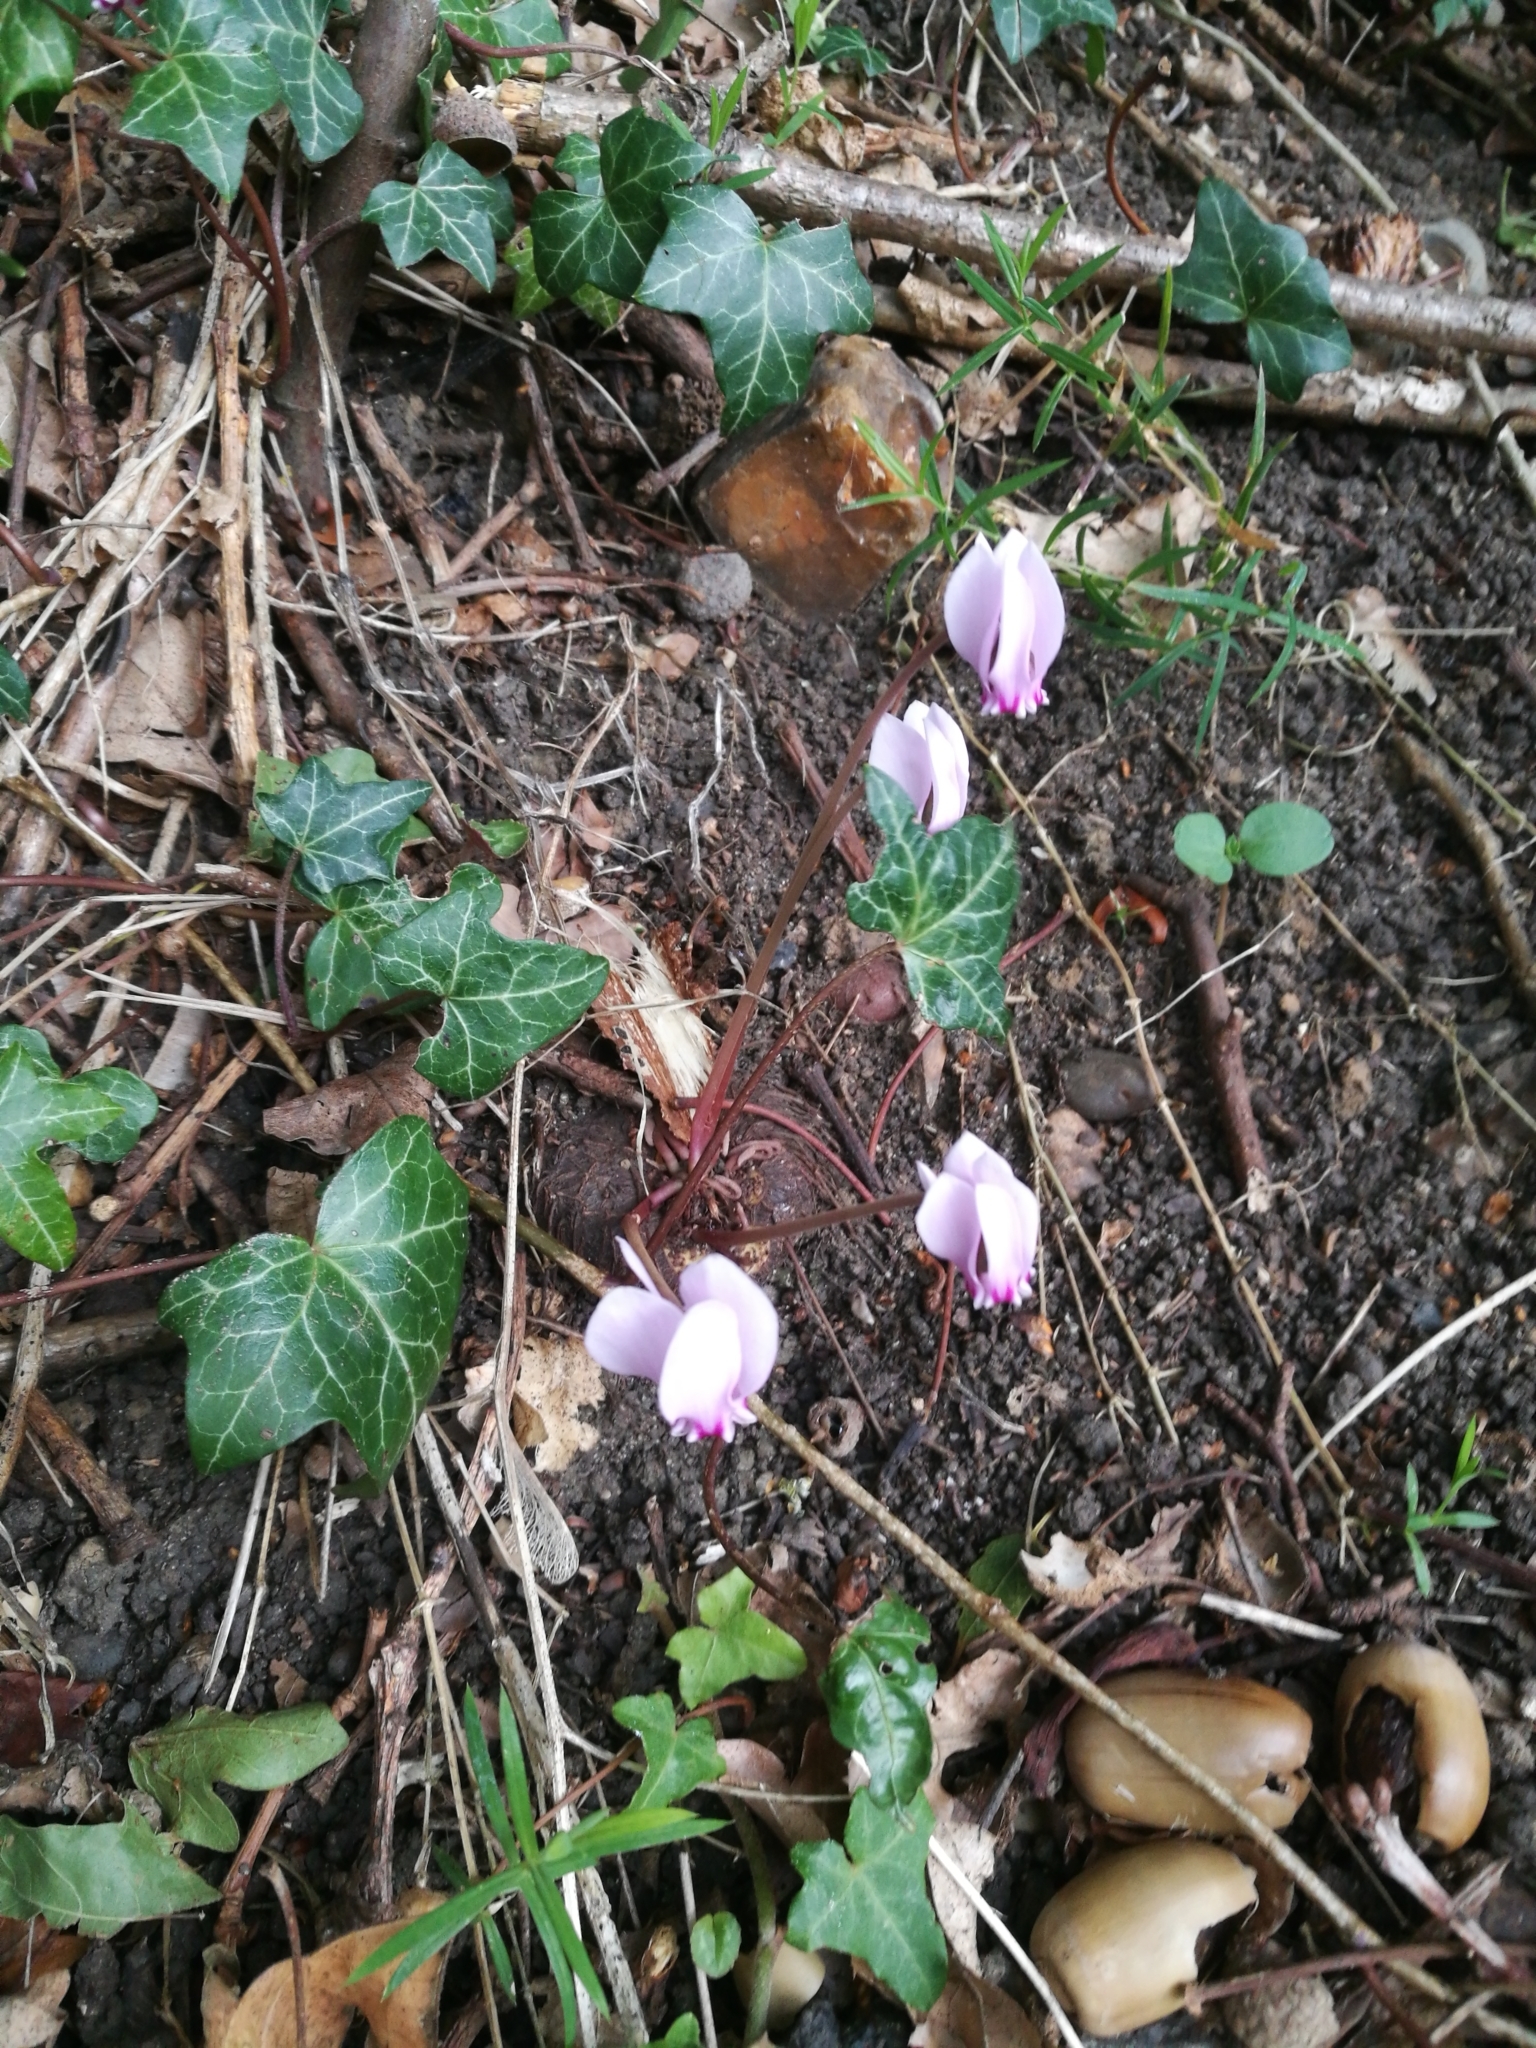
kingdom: Plantae
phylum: Tracheophyta
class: Magnoliopsida
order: Ericales
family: Primulaceae
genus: Cyclamen
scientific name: Cyclamen hederifolium
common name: Sowbread
